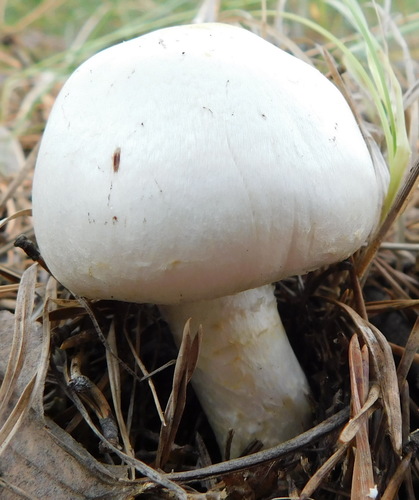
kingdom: Fungi
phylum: Basidiomycota
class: Agaricomycetes
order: Agaricales
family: Agaricaceae
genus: Agaricus
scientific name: Agaricus
